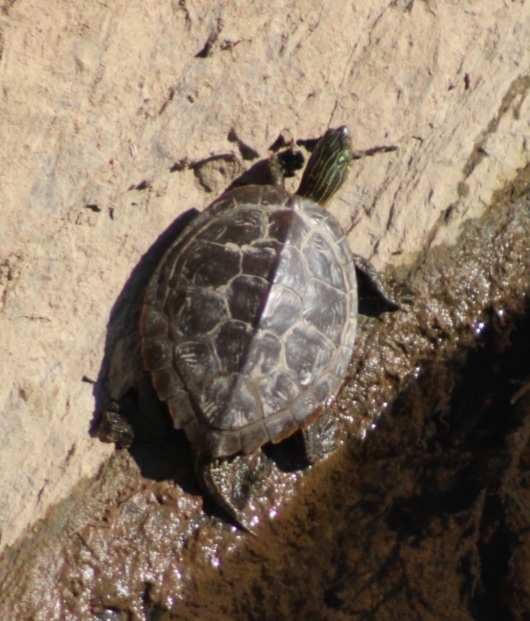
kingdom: Animalia
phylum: Chordata
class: Testudines
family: Emydidae
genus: Graptemys
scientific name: Graptemys geographica
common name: Common map turtle
